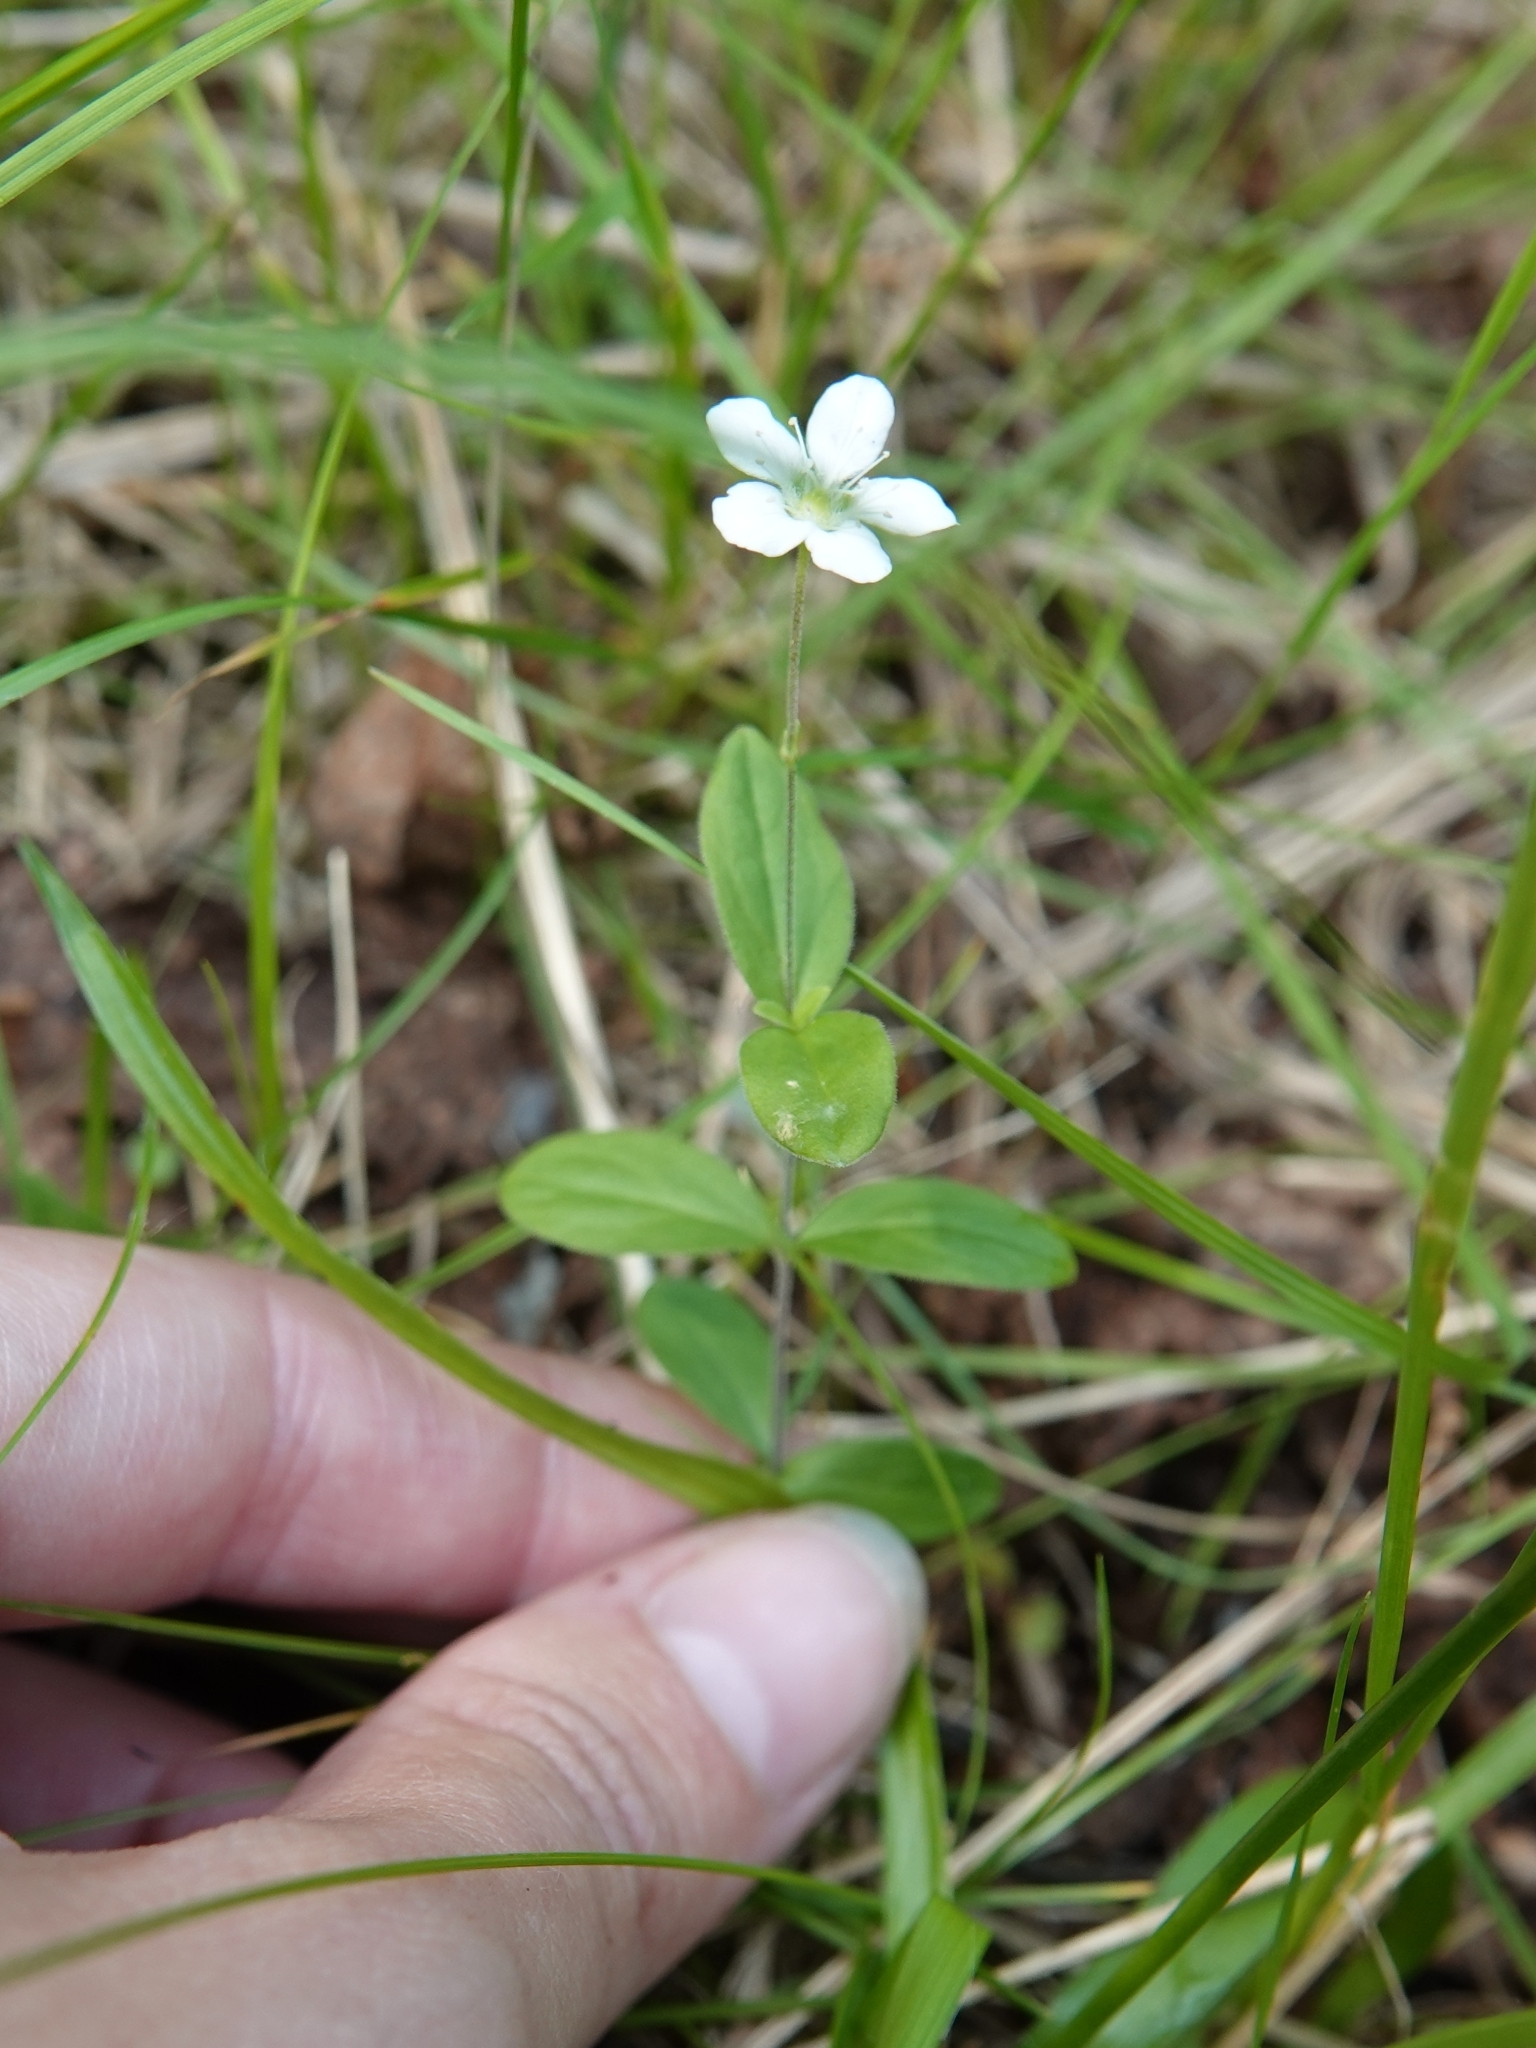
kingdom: Plantae
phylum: Tracheophyta
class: Magnoliopsida
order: Caryophyllales
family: Caryophyllaceae
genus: Moehringia
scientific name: Moehringia lateriflora
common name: Blunt-leaved sandwort
